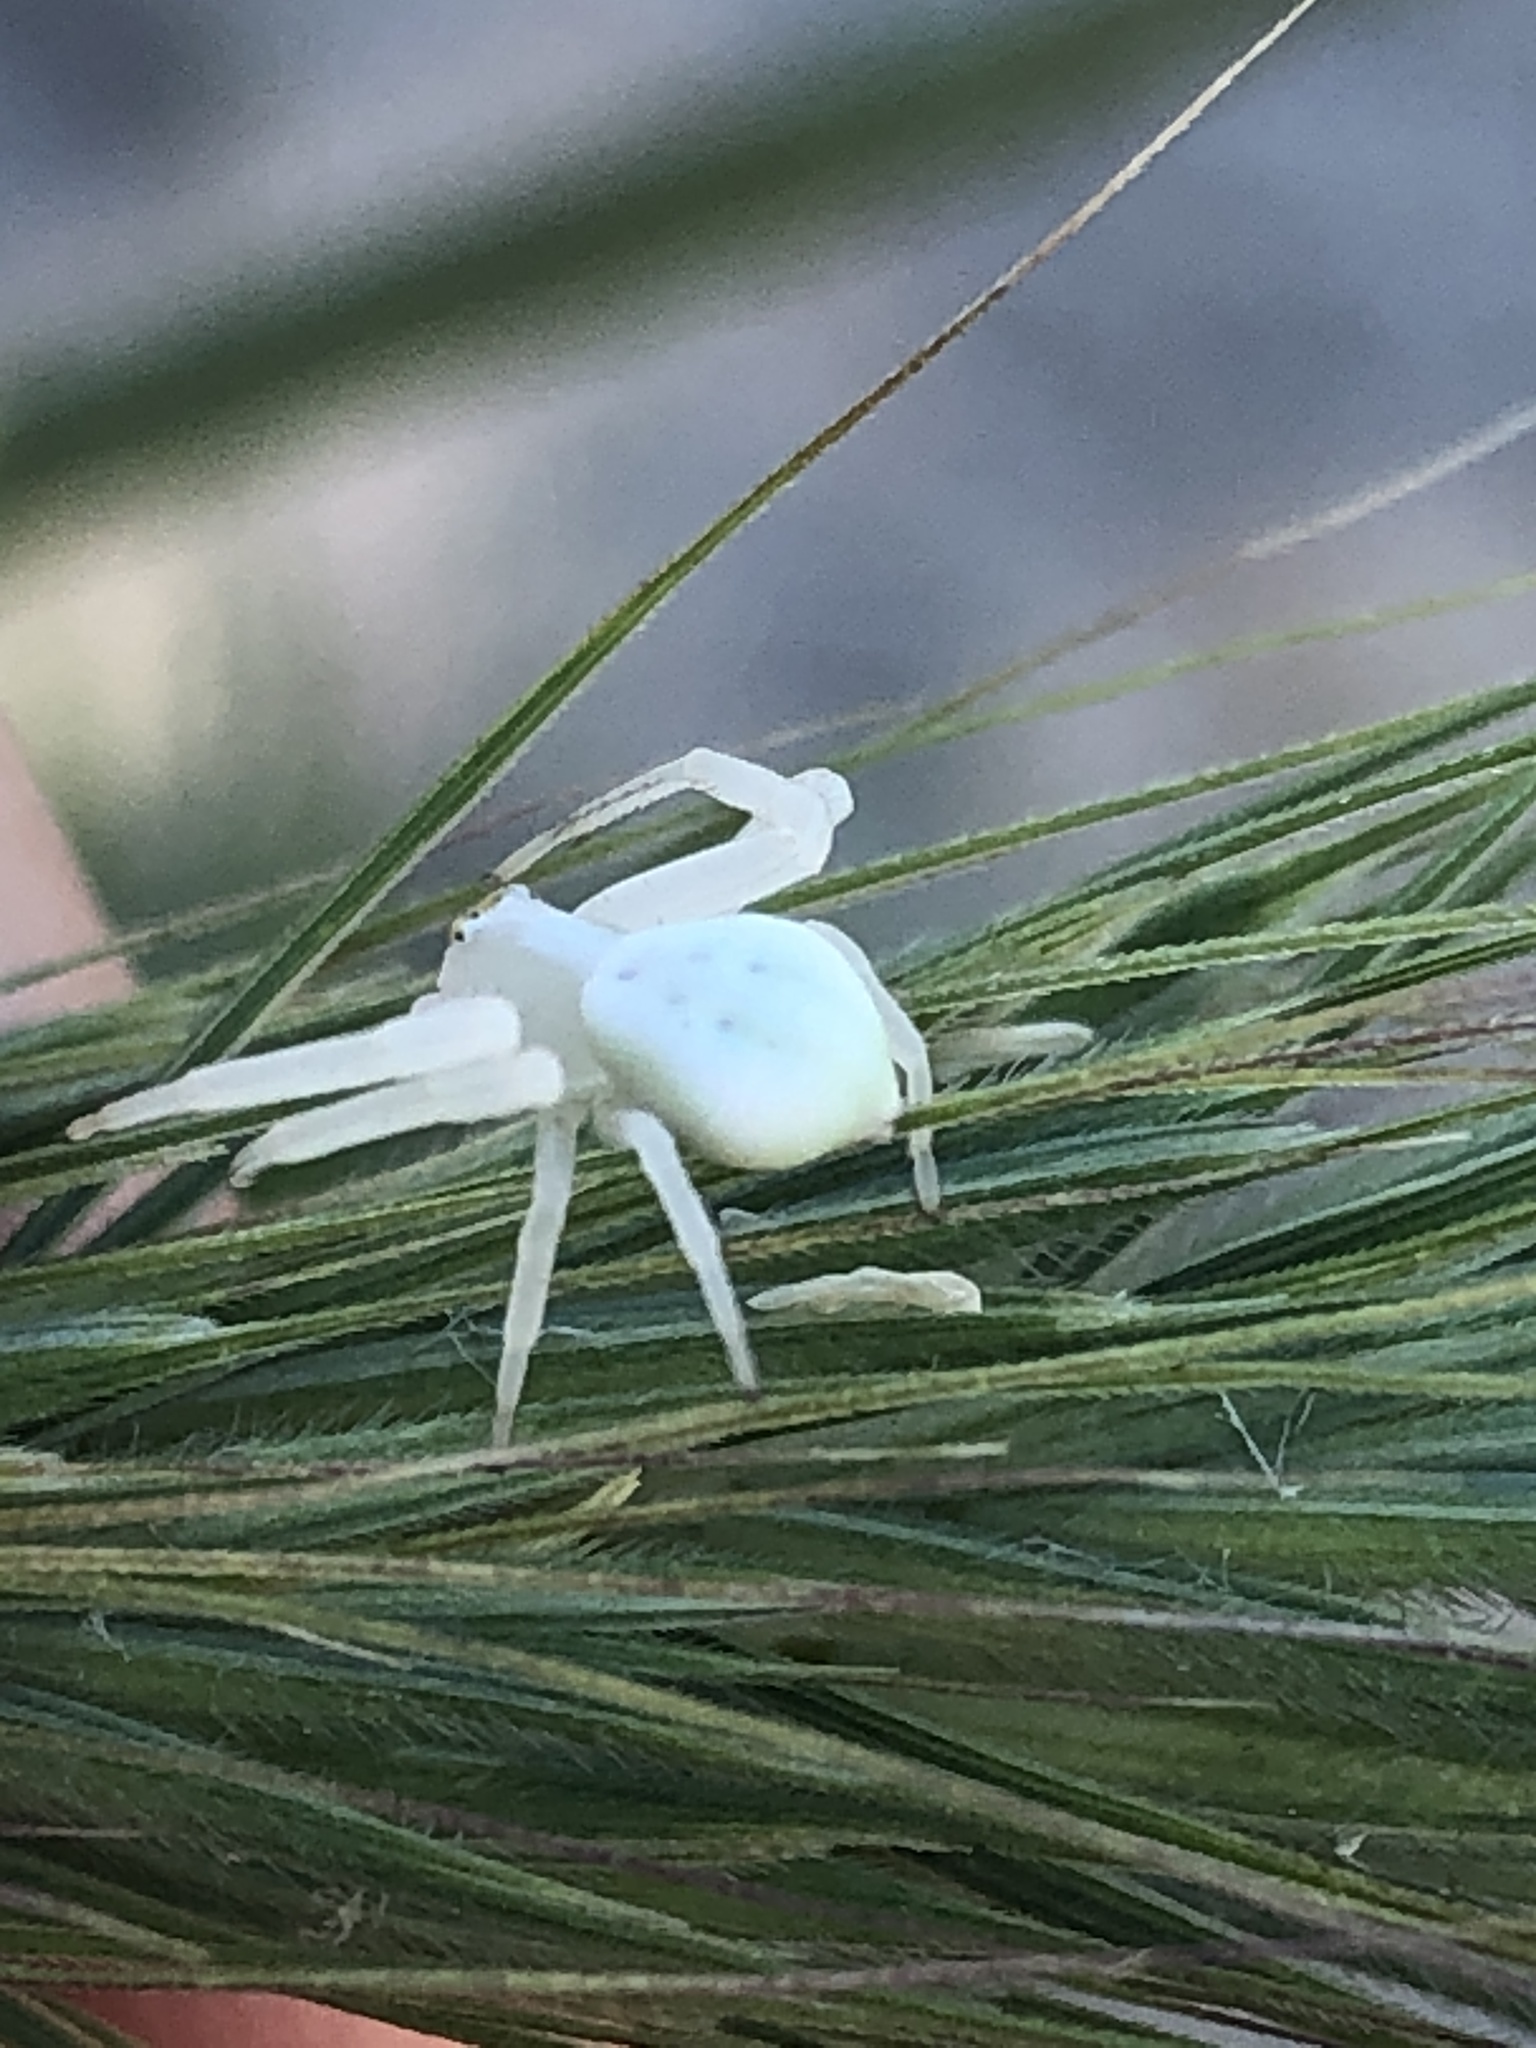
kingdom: Animalia
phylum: Arthropoda
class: Arachnida
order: Araneae
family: Thomisidae
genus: Misumena
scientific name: Misumena vatia
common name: Goldenrod crab spider
